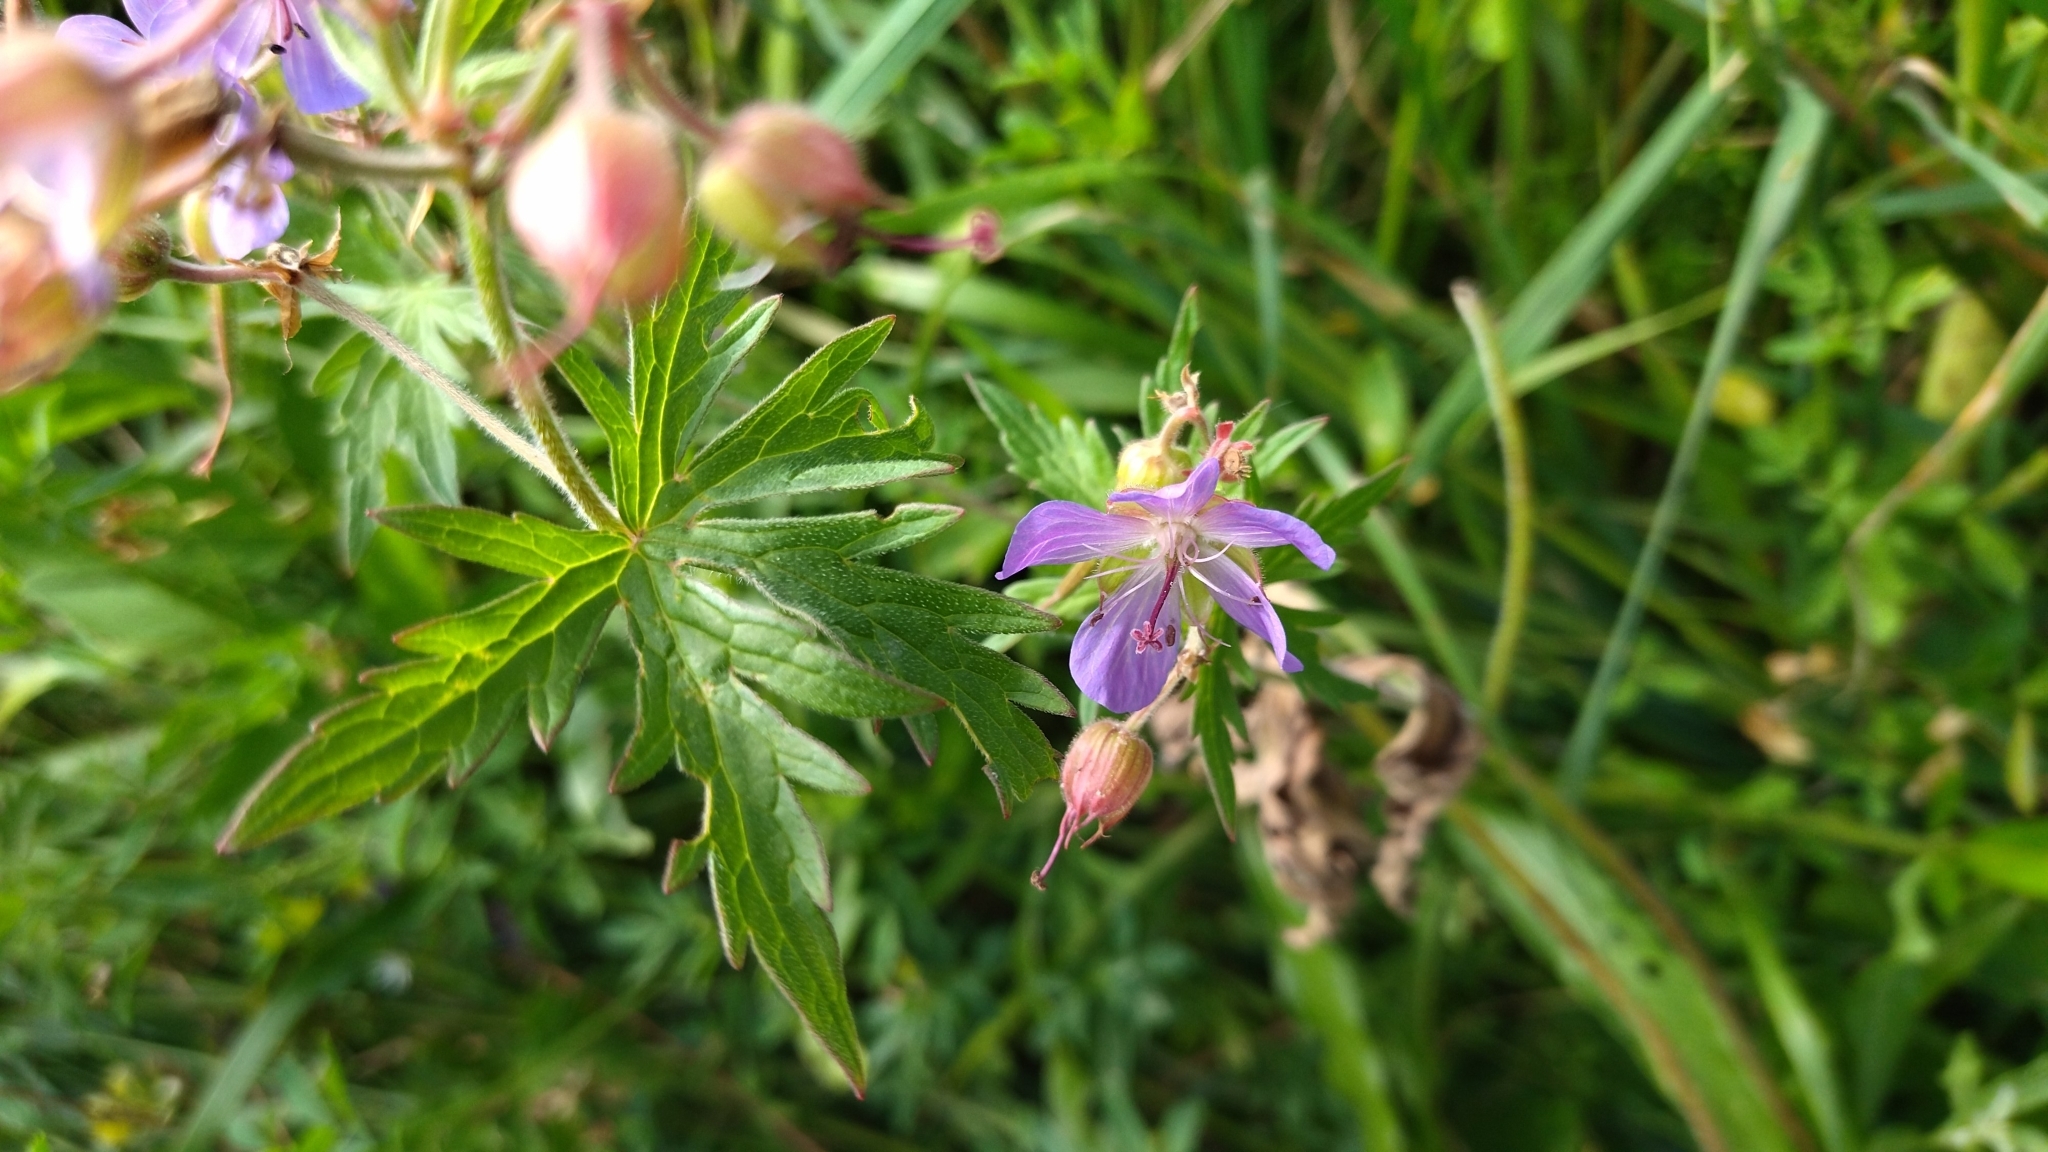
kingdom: Plantae
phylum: Tracheophyta
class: Magnoliopsida
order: Geraniales
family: Geraniaceae
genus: Geranium
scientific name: Geranium pratense
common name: Meadow crane's-bill
